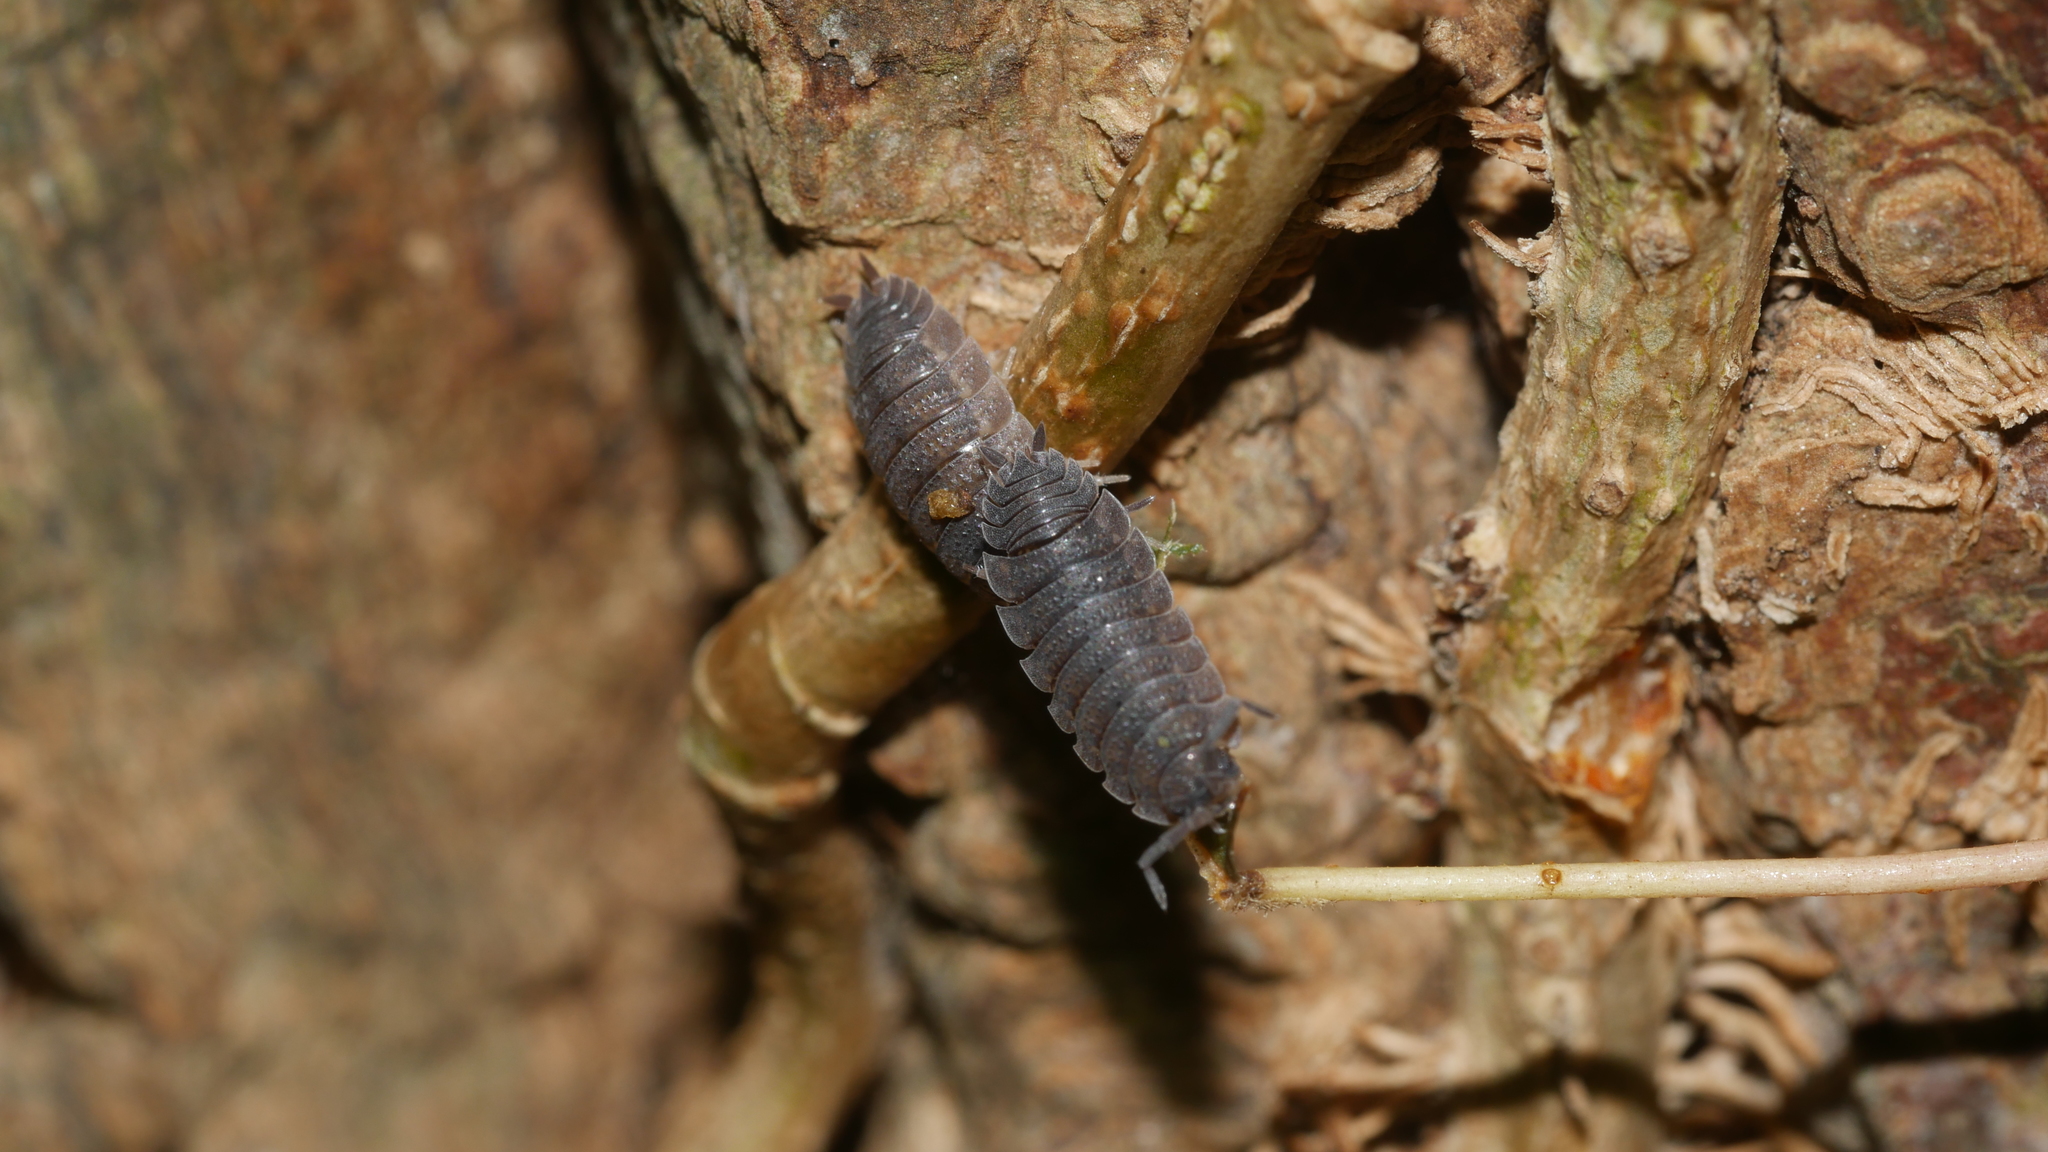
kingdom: Animalia
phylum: Arthropoda
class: Malacostraca
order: Isopoda
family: Porcellionidae
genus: Porcellio
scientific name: Porcellio scaber
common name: Common rough woodlouse
